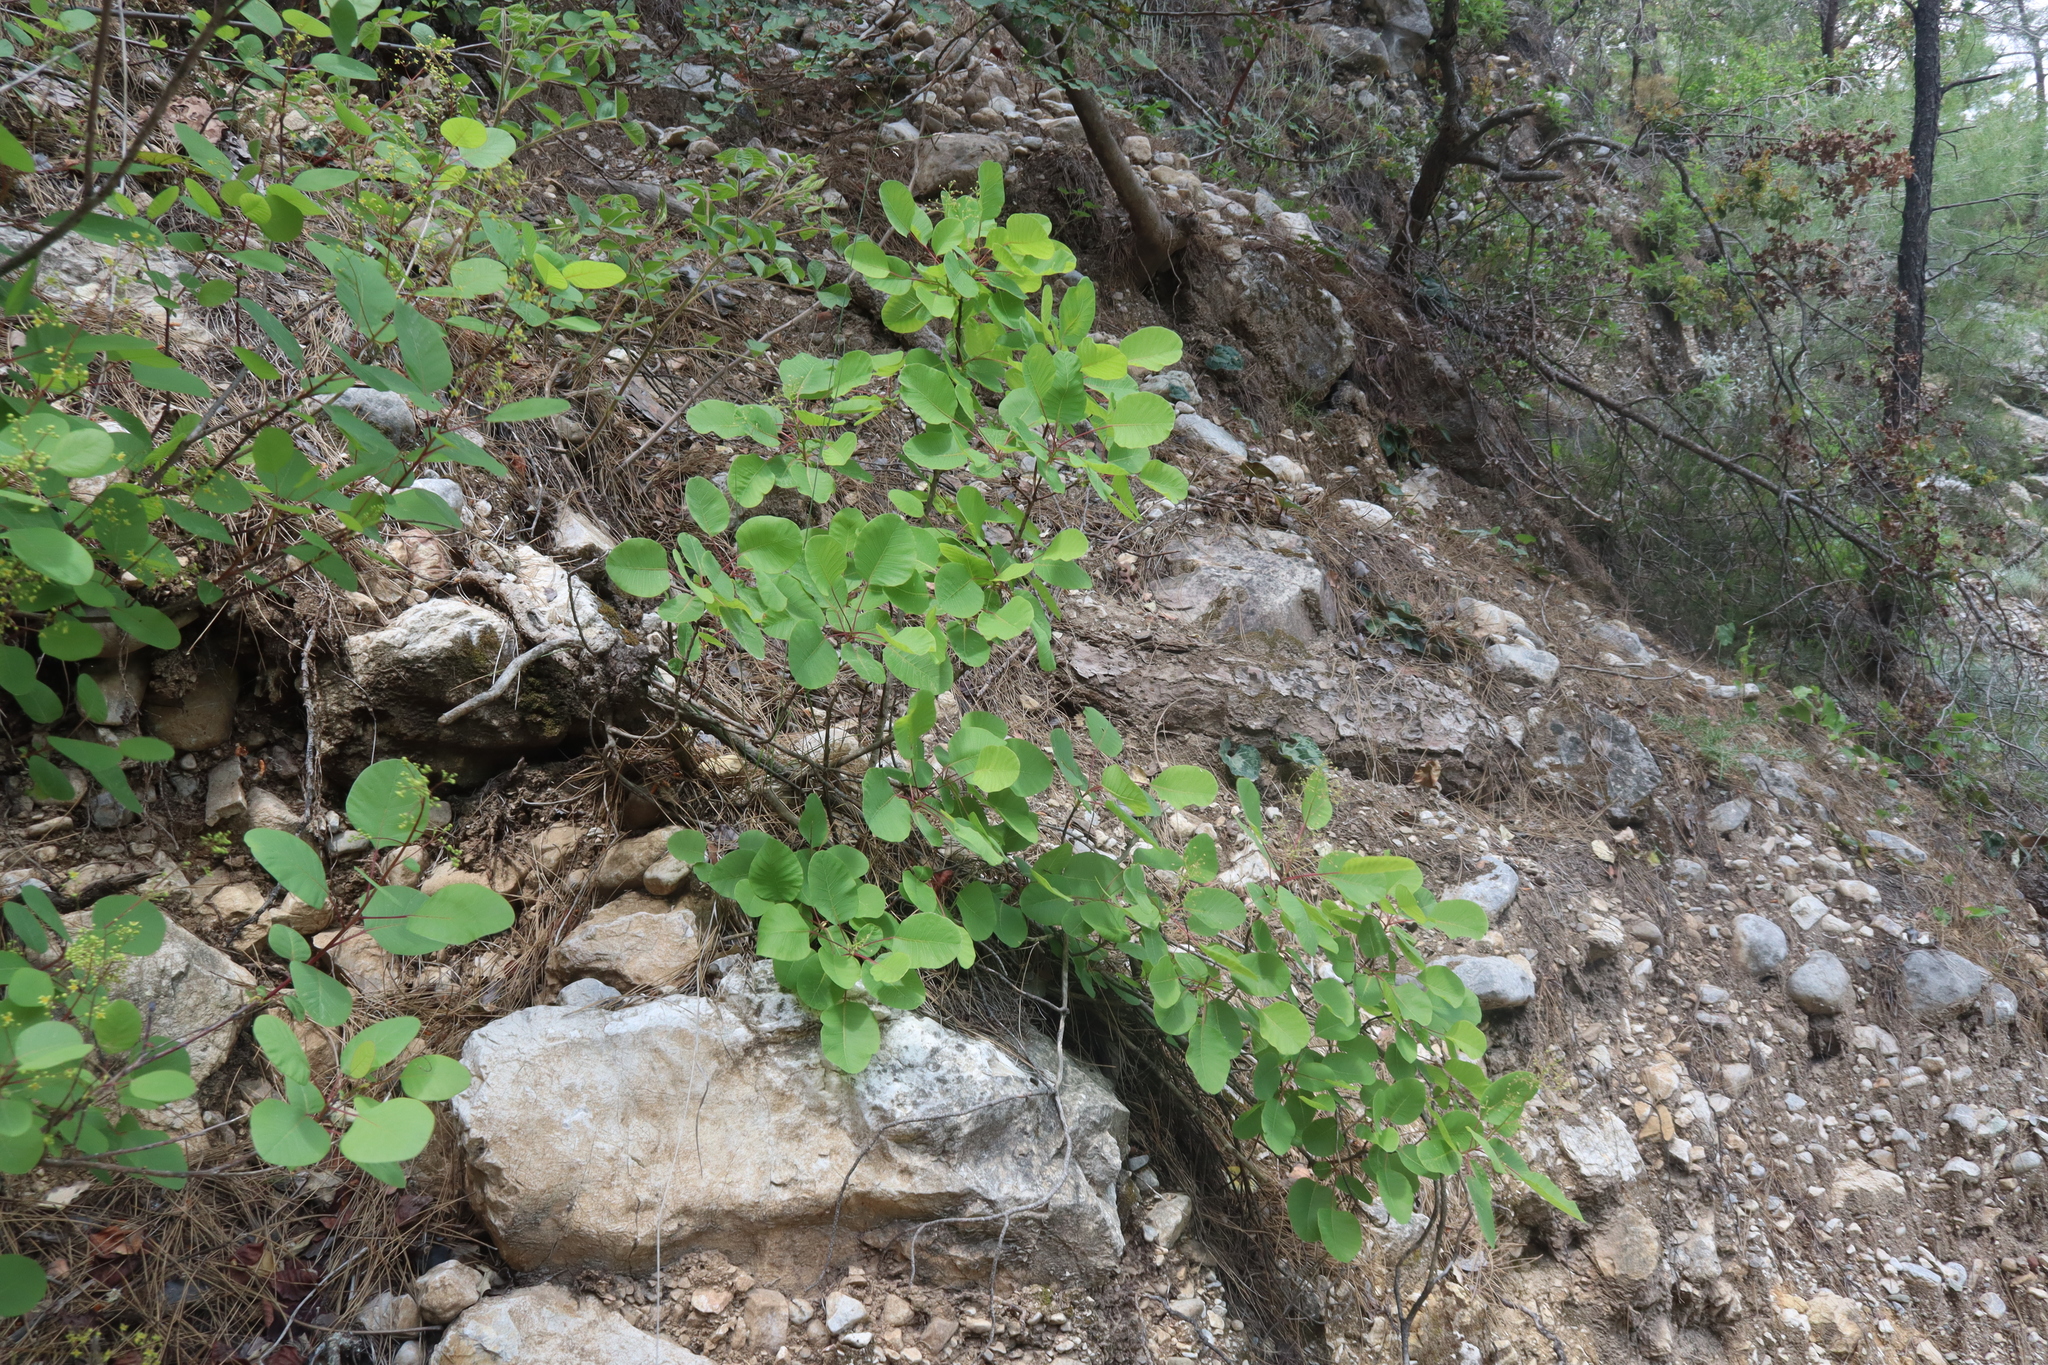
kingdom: Plantae
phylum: Tracheophyta
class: Magnoliopsida
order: Sapindales
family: Anacardiaceae
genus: Cotinus
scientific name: Cotinus coggygria
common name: Smoke-tree
